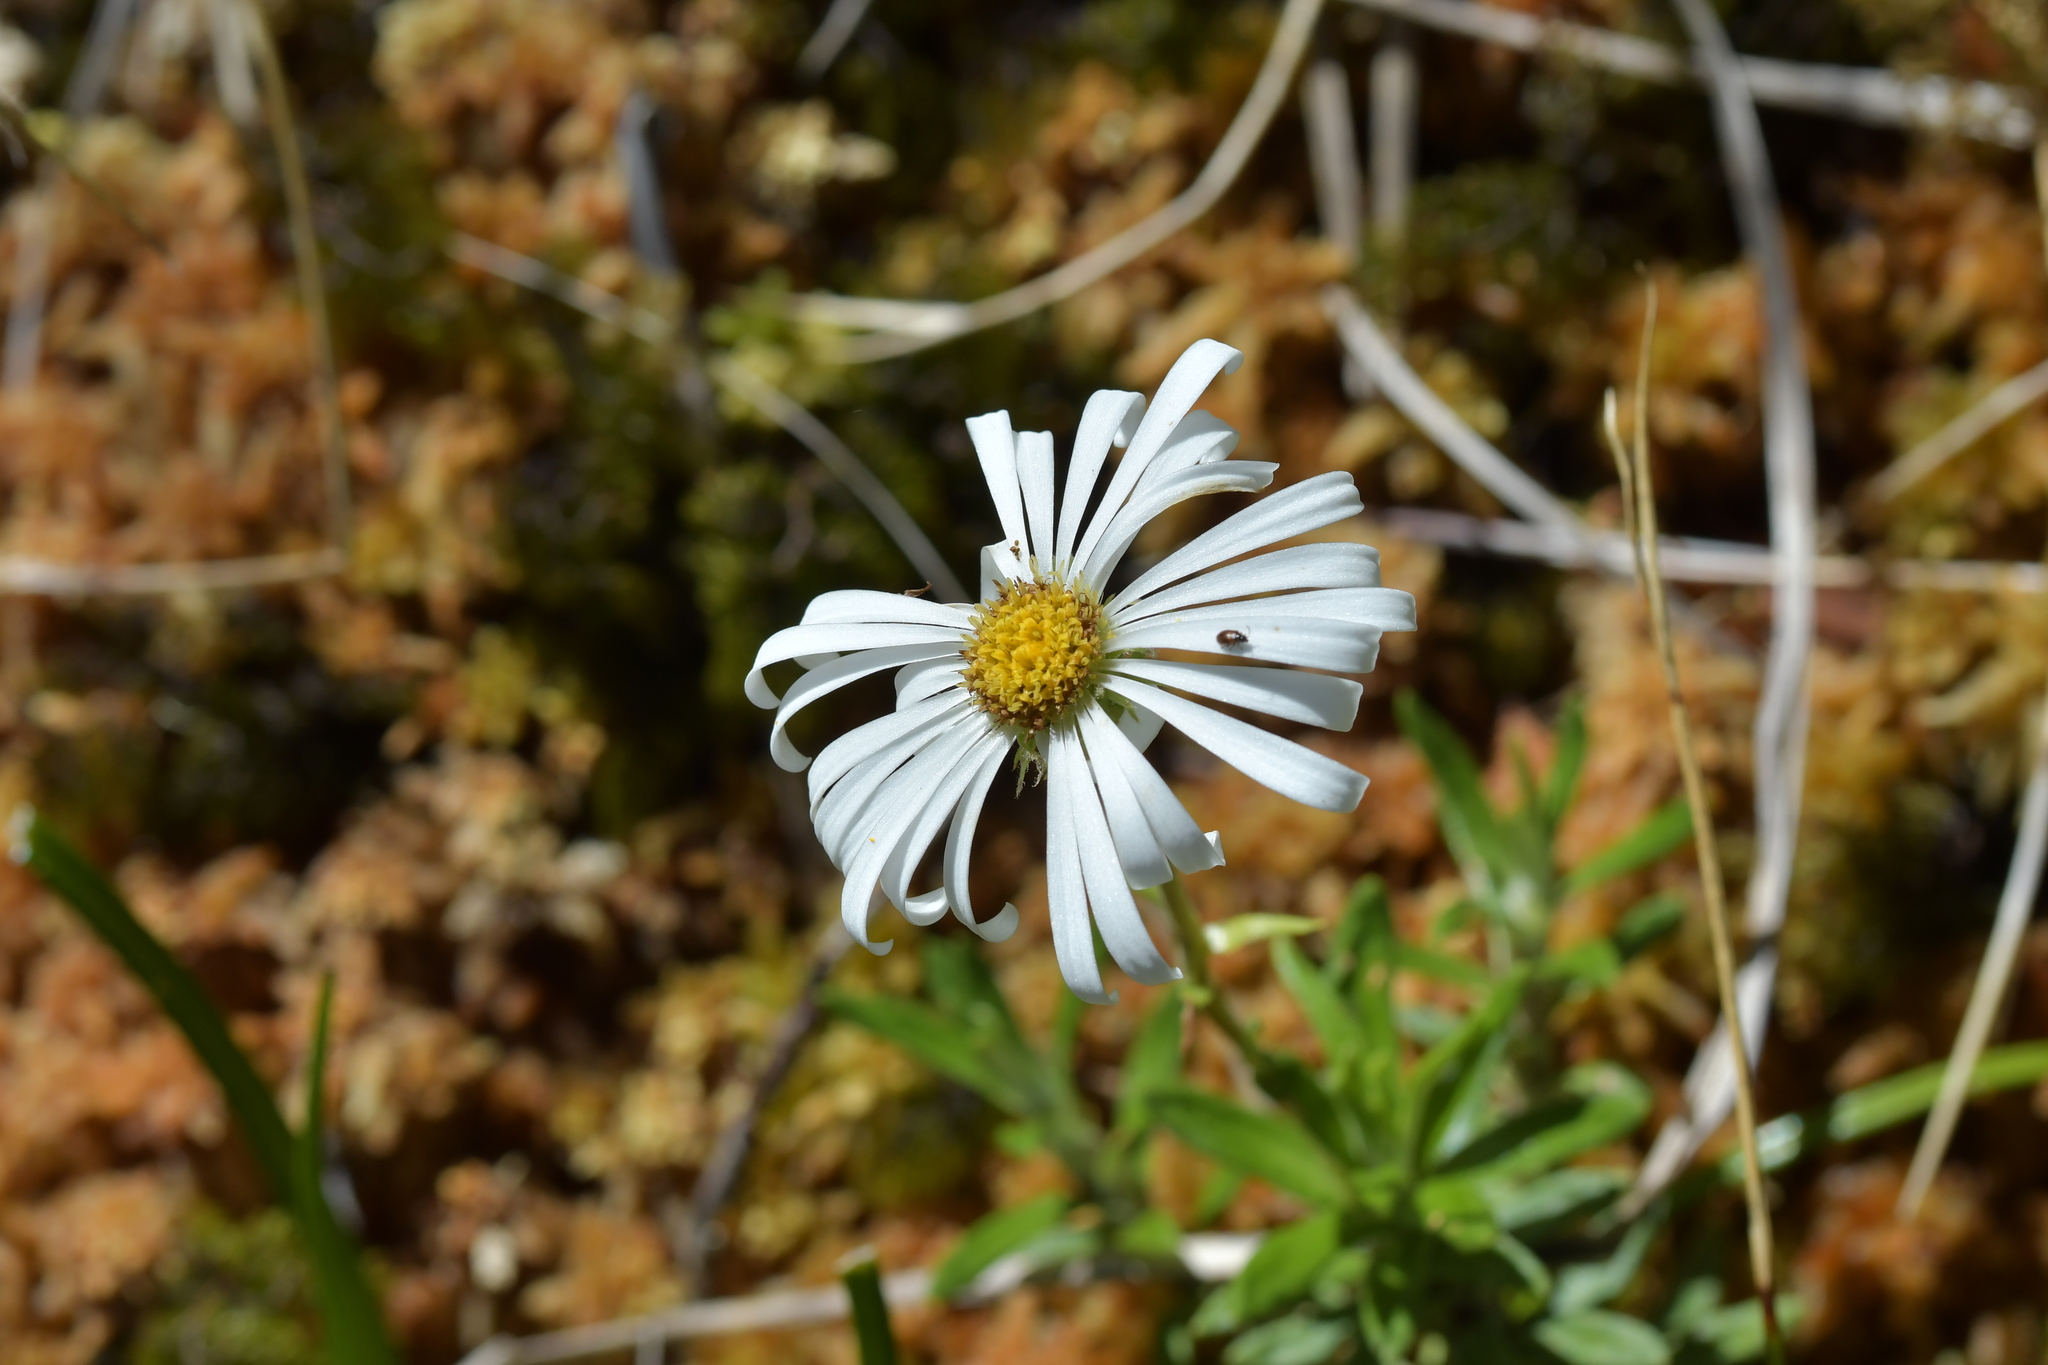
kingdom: Plantae
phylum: Tracheophyta
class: Magnoliopsida
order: Asterales
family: Asteraceae
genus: Celmisia
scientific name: Celmisia walkeri
